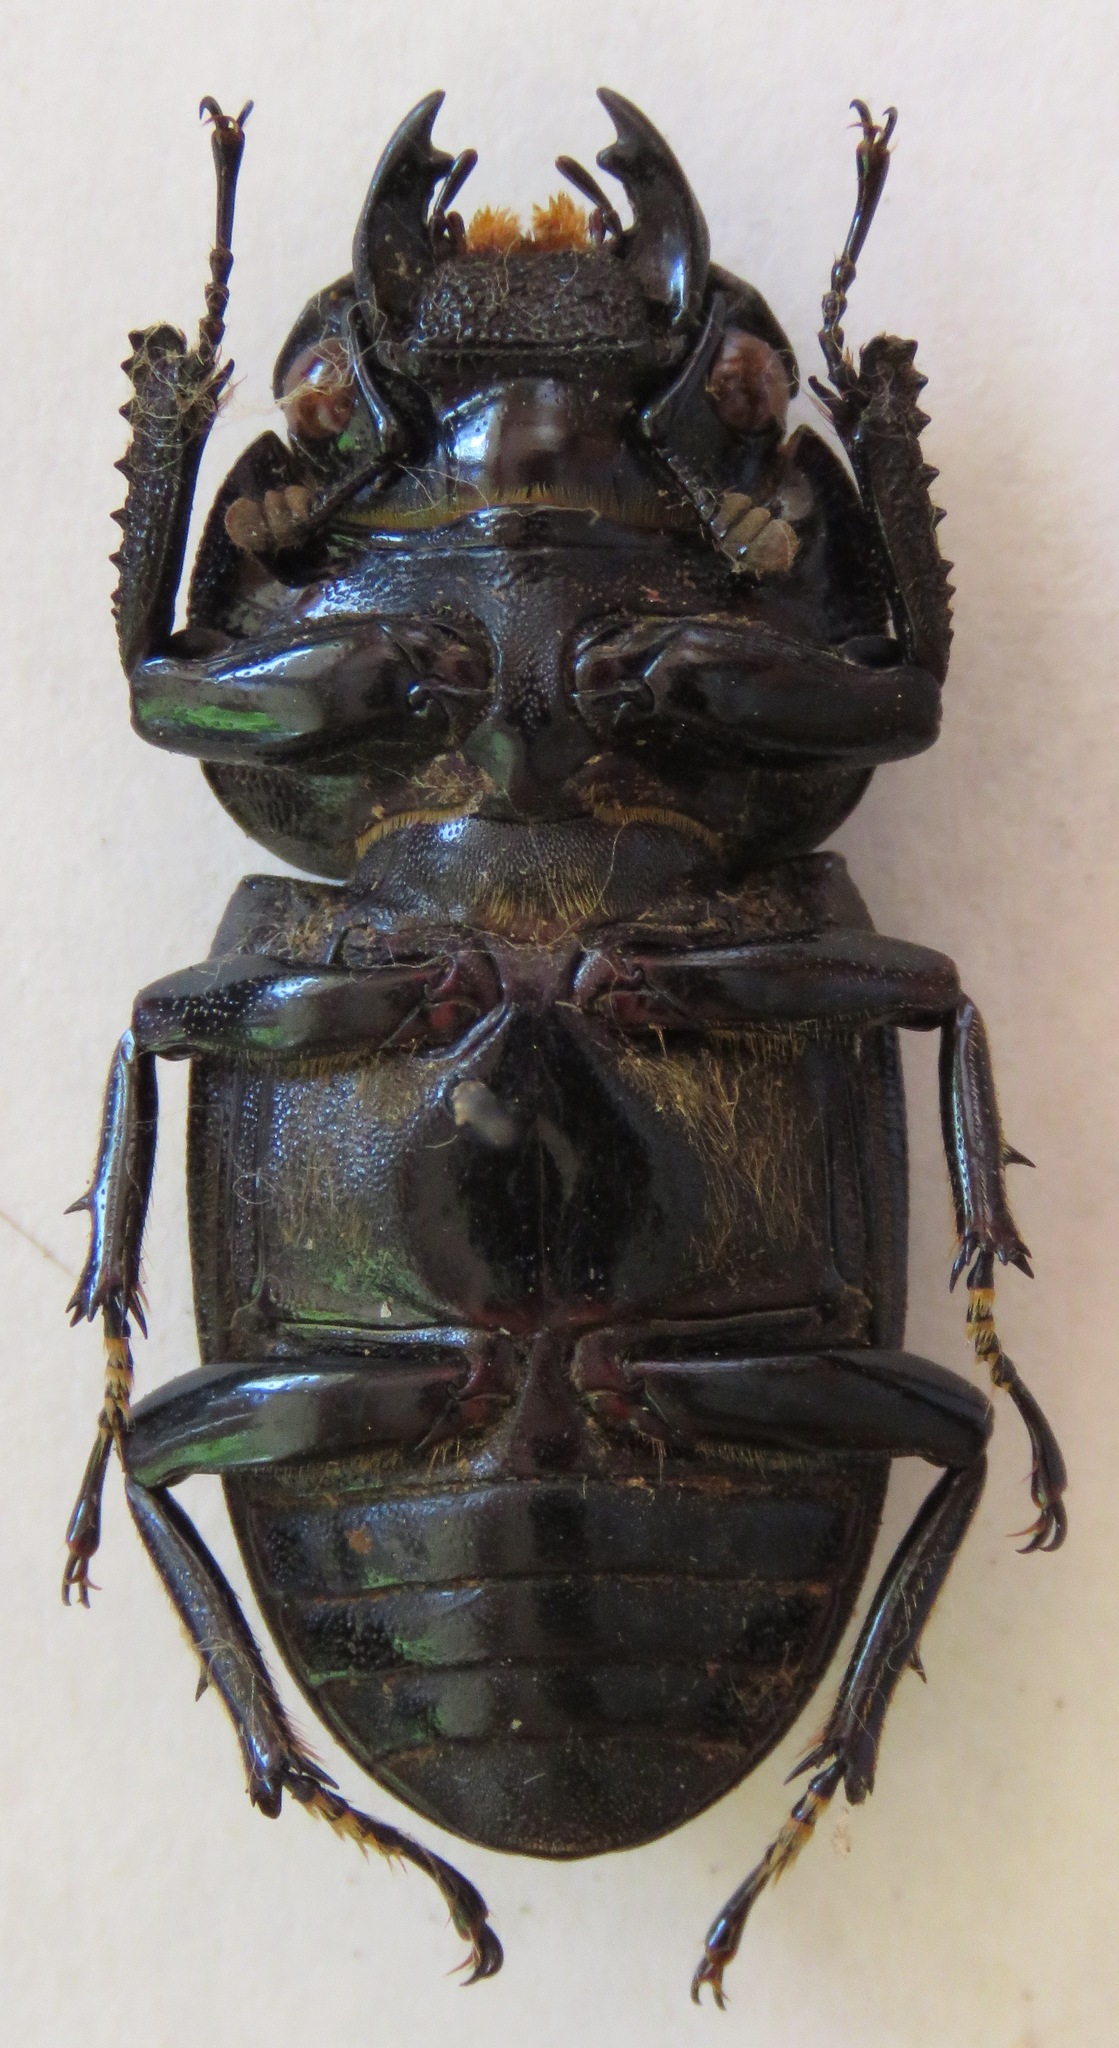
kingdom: Animalia
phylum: Arthropoda
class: Insecta
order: Coleoptera
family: Lucanidae
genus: Dorcus
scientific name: Dorcus ritsemae
